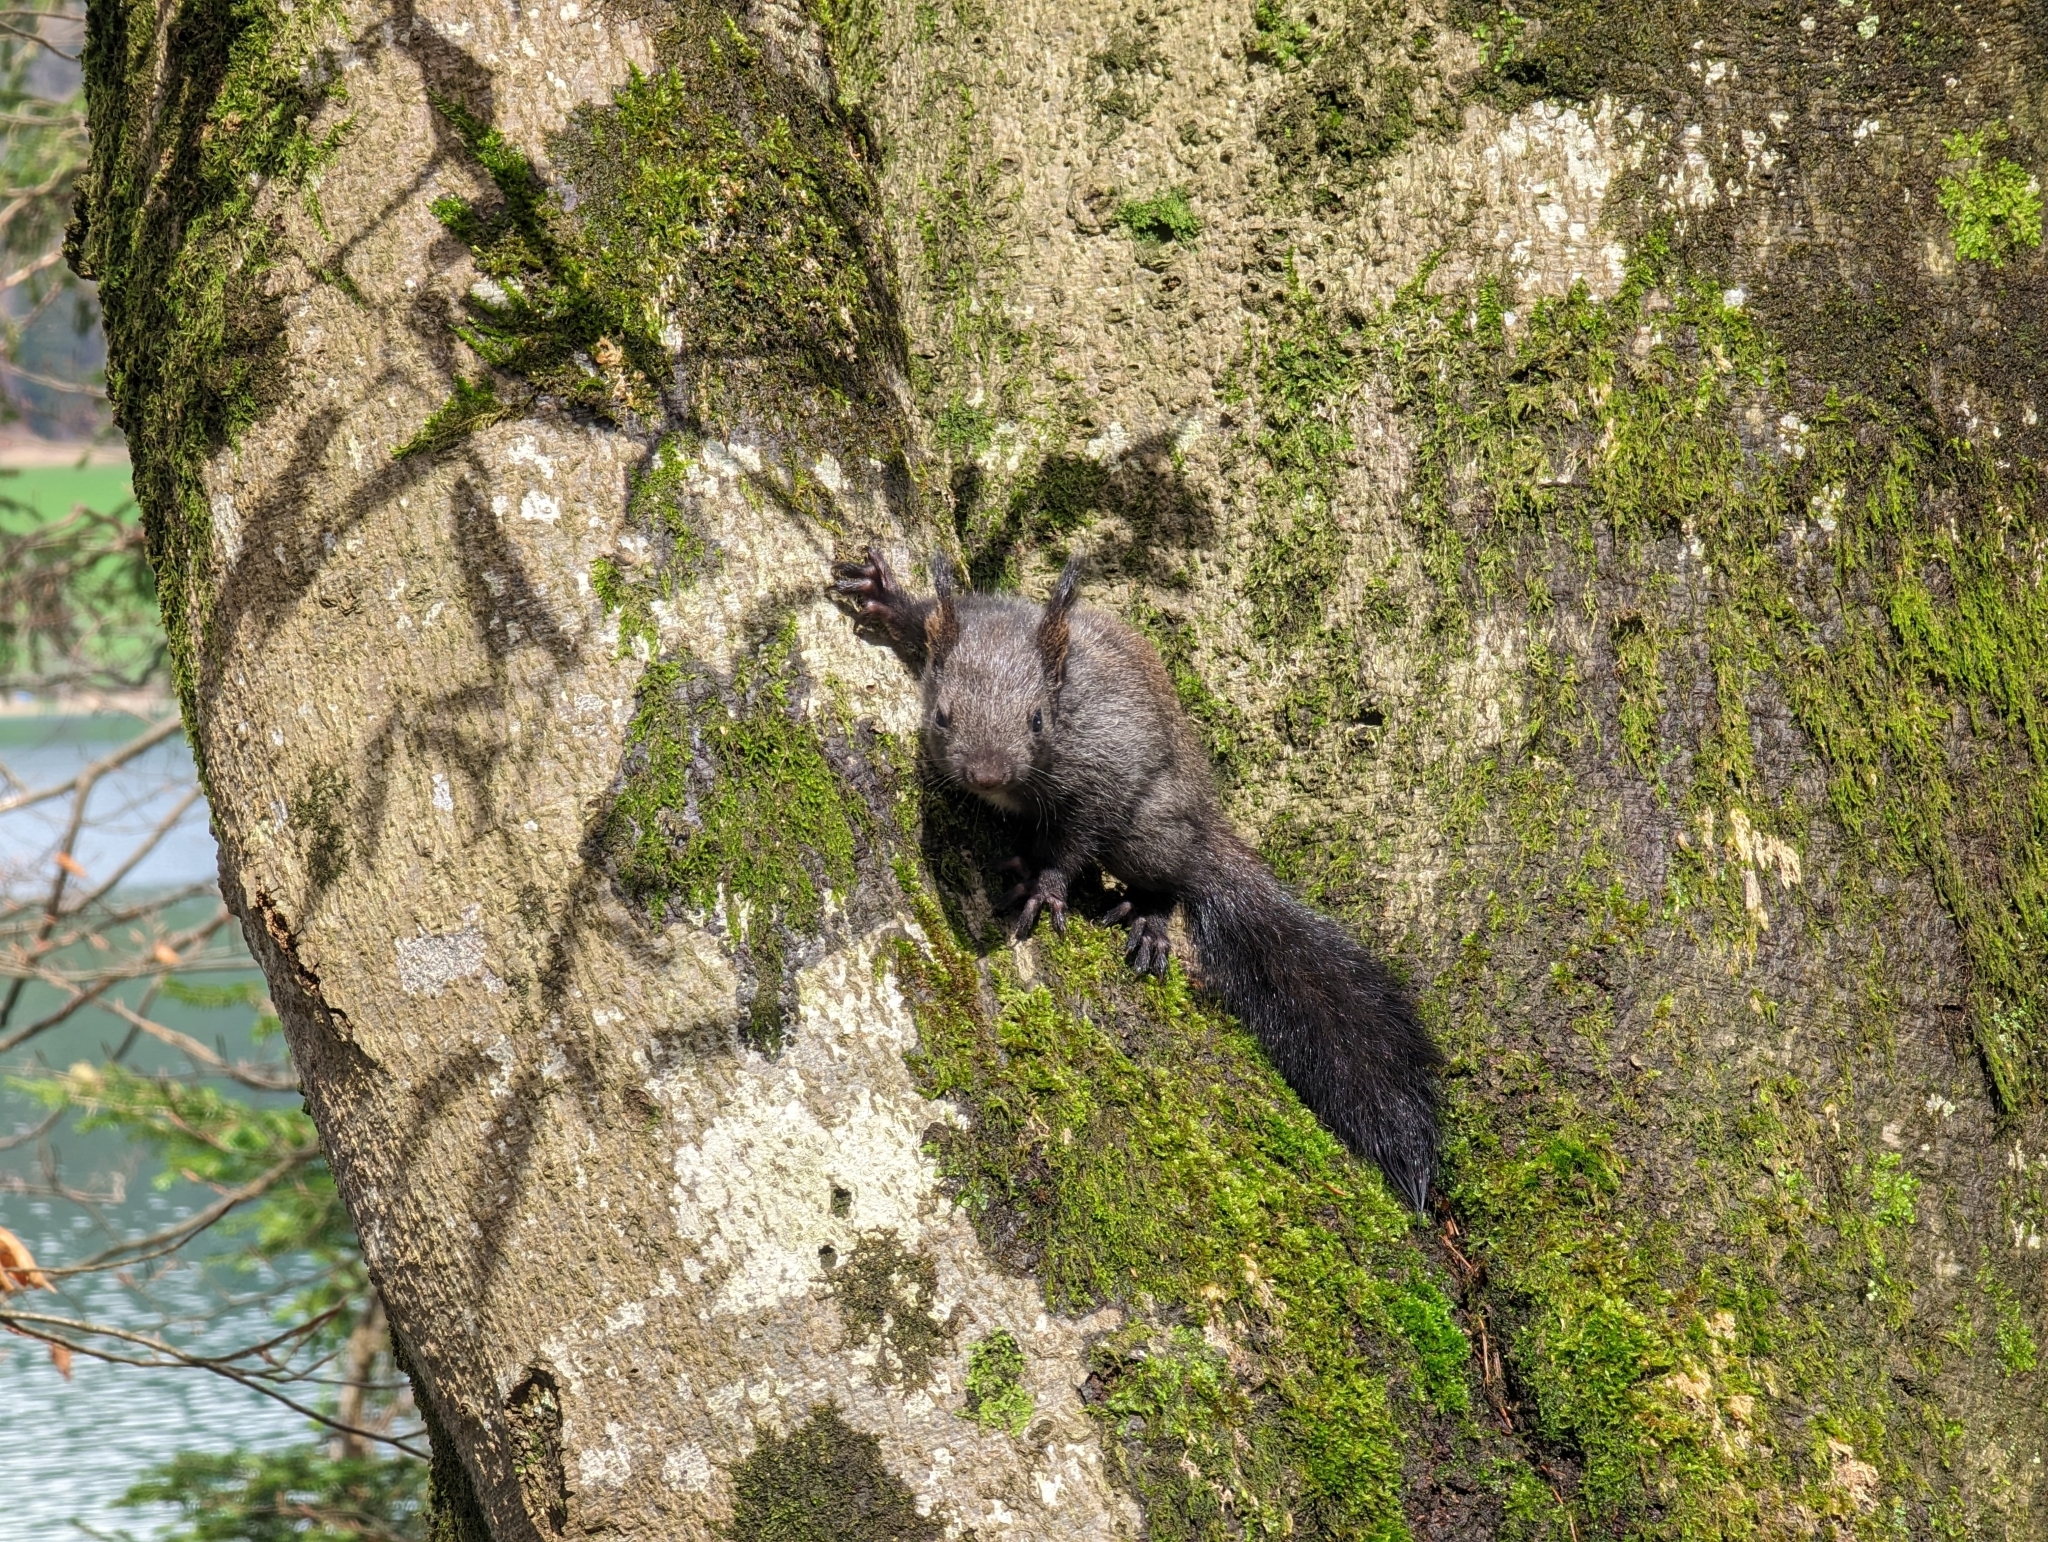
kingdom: Animalia
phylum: Chordata
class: Mammalia
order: Rodentia
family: Sciuridae
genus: Sciurus
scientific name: Sciurus vulgaris
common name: Eurasian red squirrel
